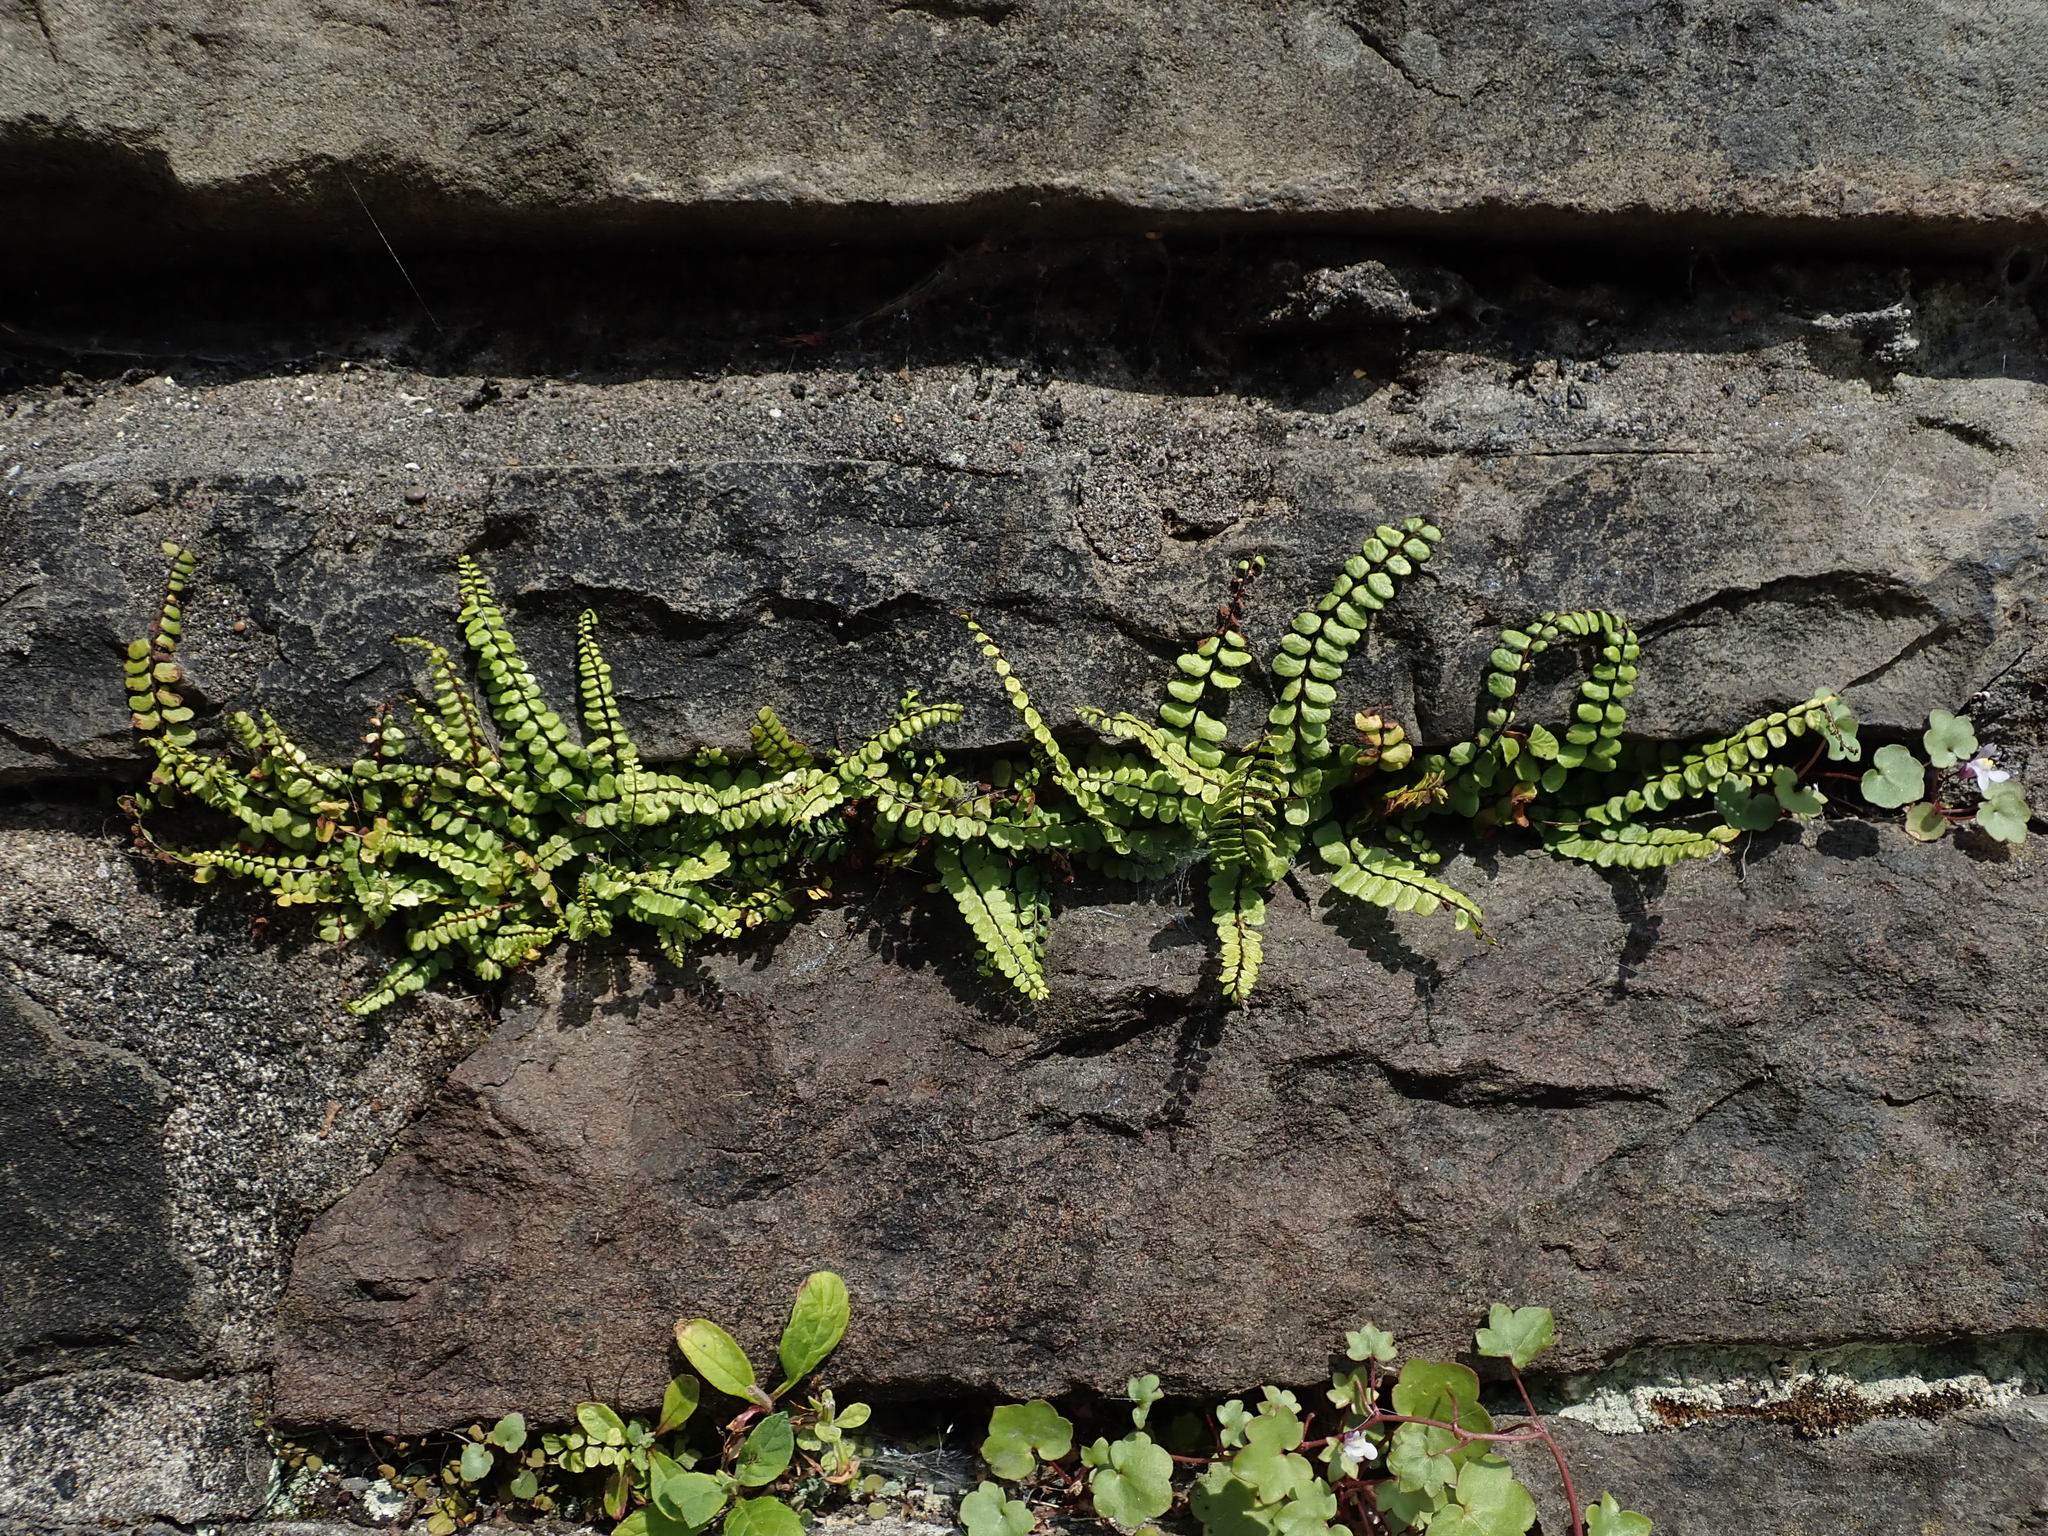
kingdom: Plantae
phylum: Tracheophyta
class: Polypodiopsida
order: Polypodiales
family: Aspleniaceae
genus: Asplenium
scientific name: Asplenium trichomanes
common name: Maidenhair spleenwort
